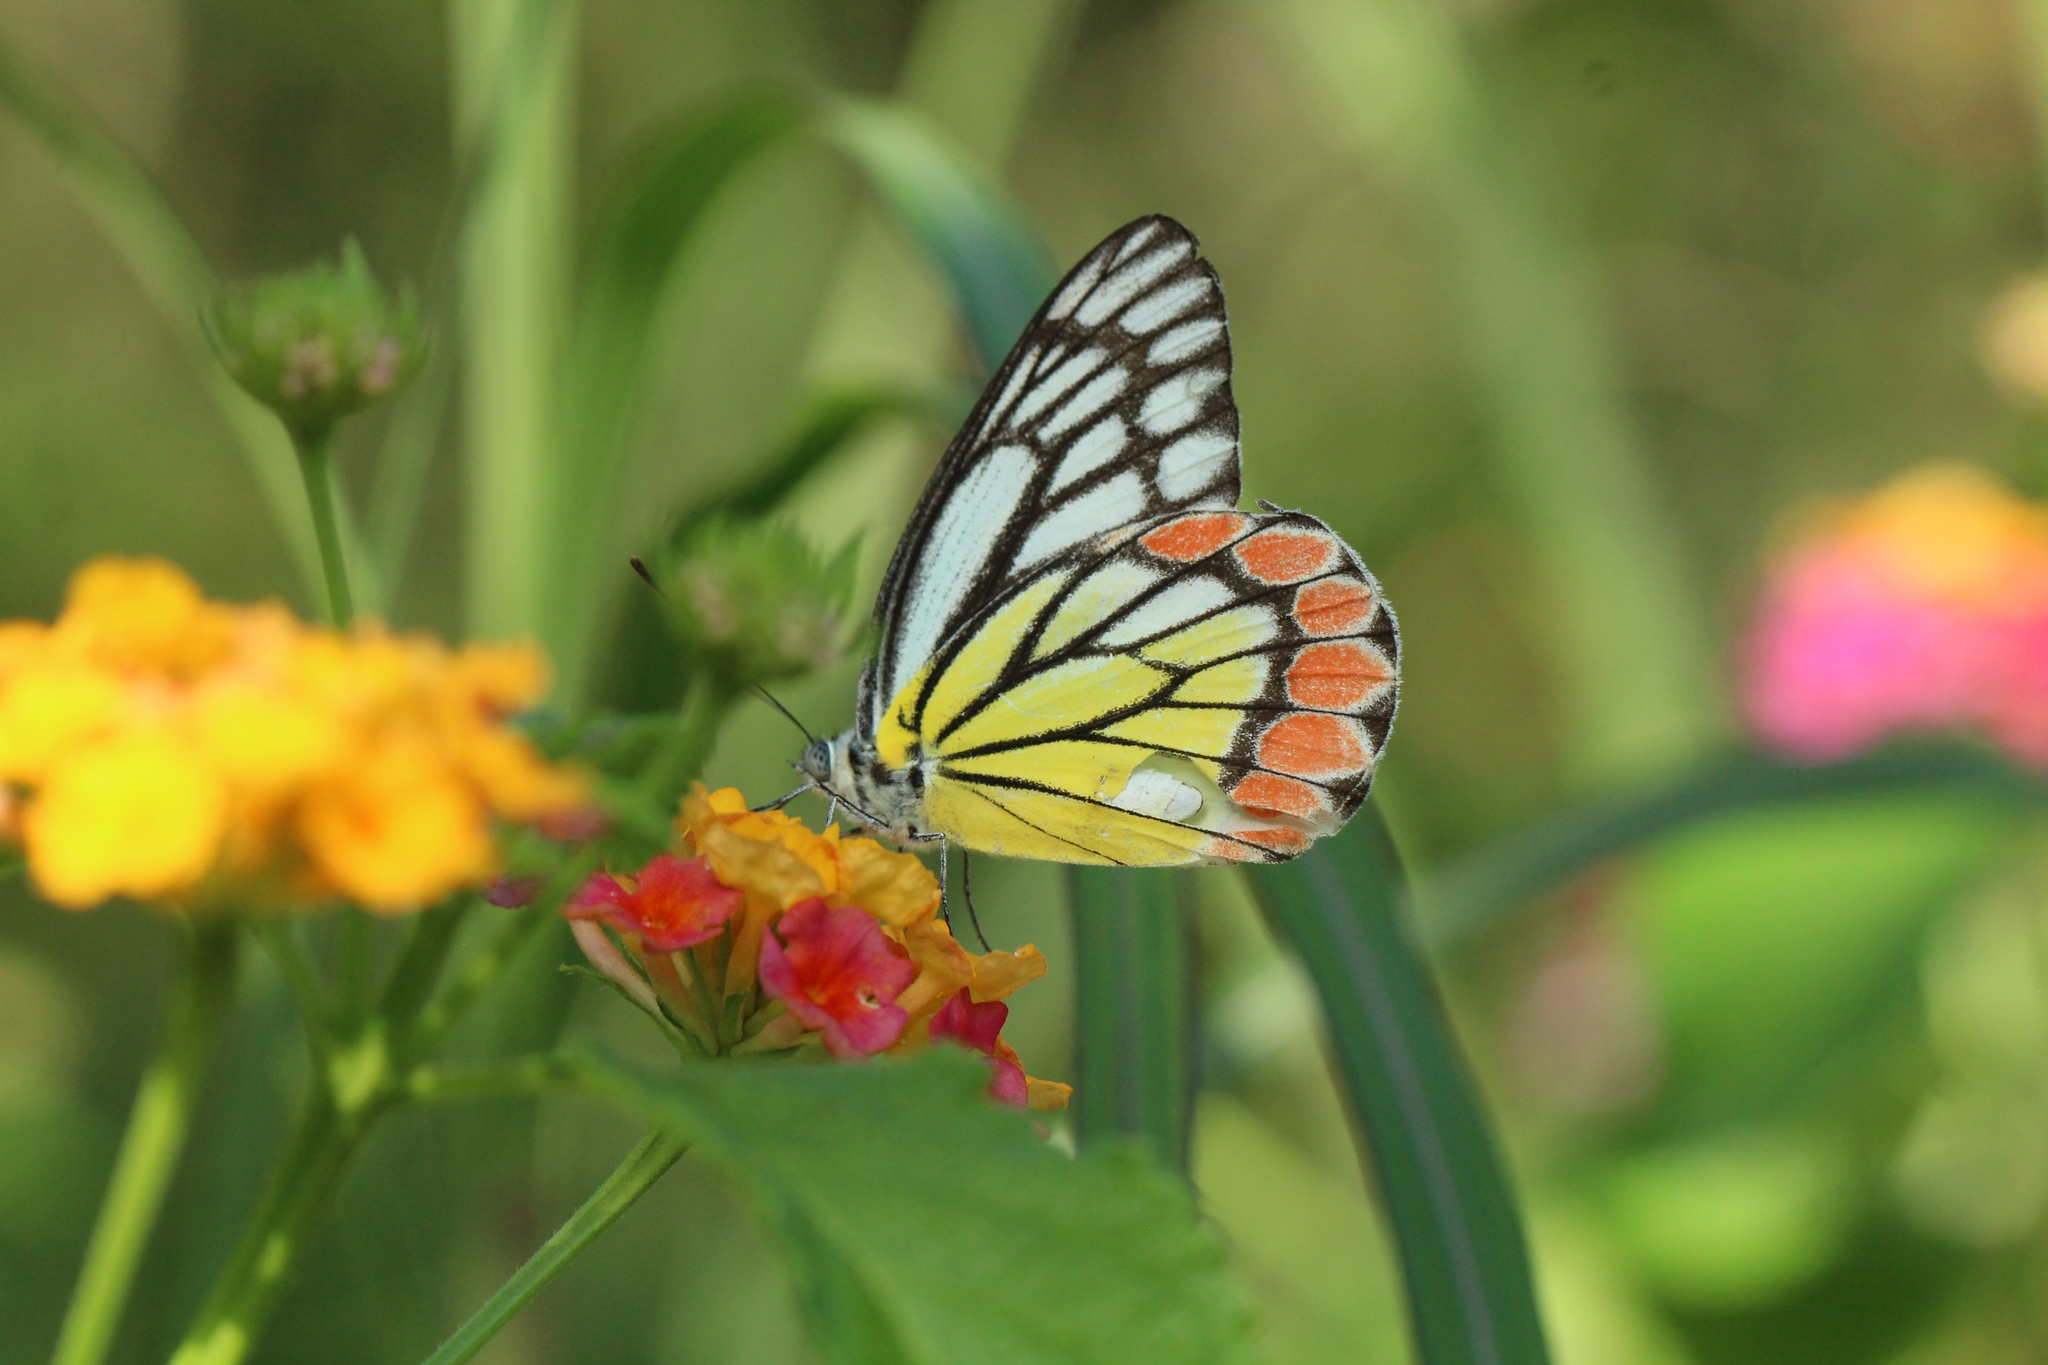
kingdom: Animalia
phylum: Arthropoda
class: Insecta
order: Lepidoptera
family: Pieridae
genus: Delias
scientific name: Delias eucharis
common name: Common jezebel
